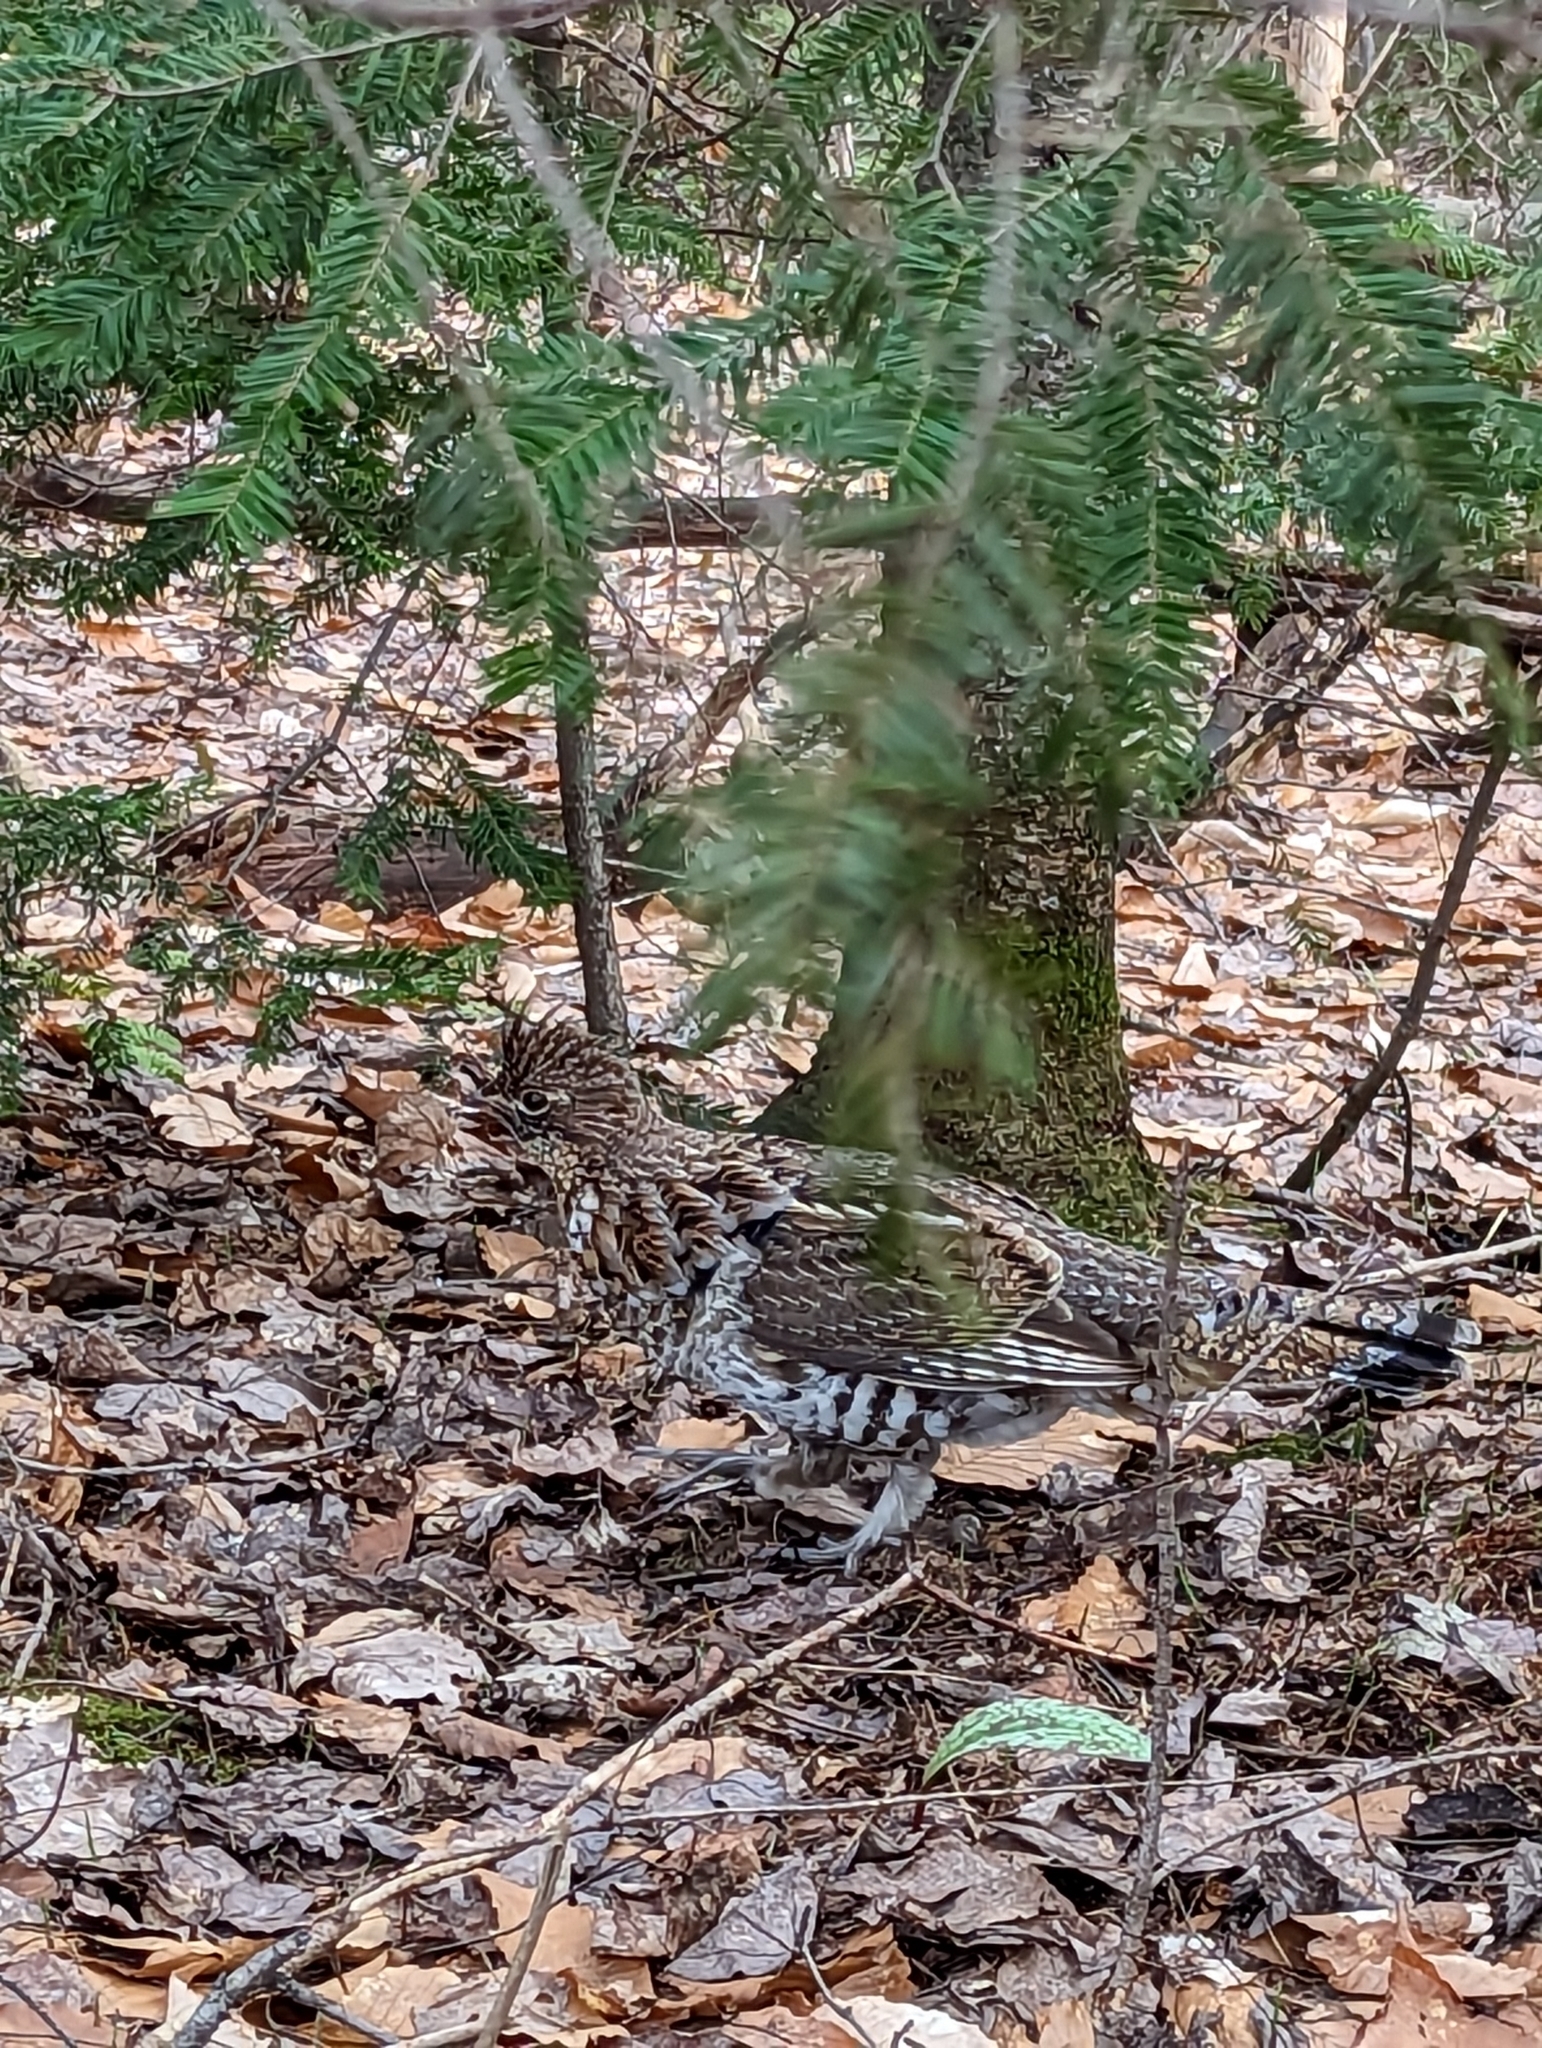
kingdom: Animalia
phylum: Chordata
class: Aves
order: Galliformes
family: Phasianidae
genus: Bonasa
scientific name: Bonasa umbellus
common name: Ruffed grouse
